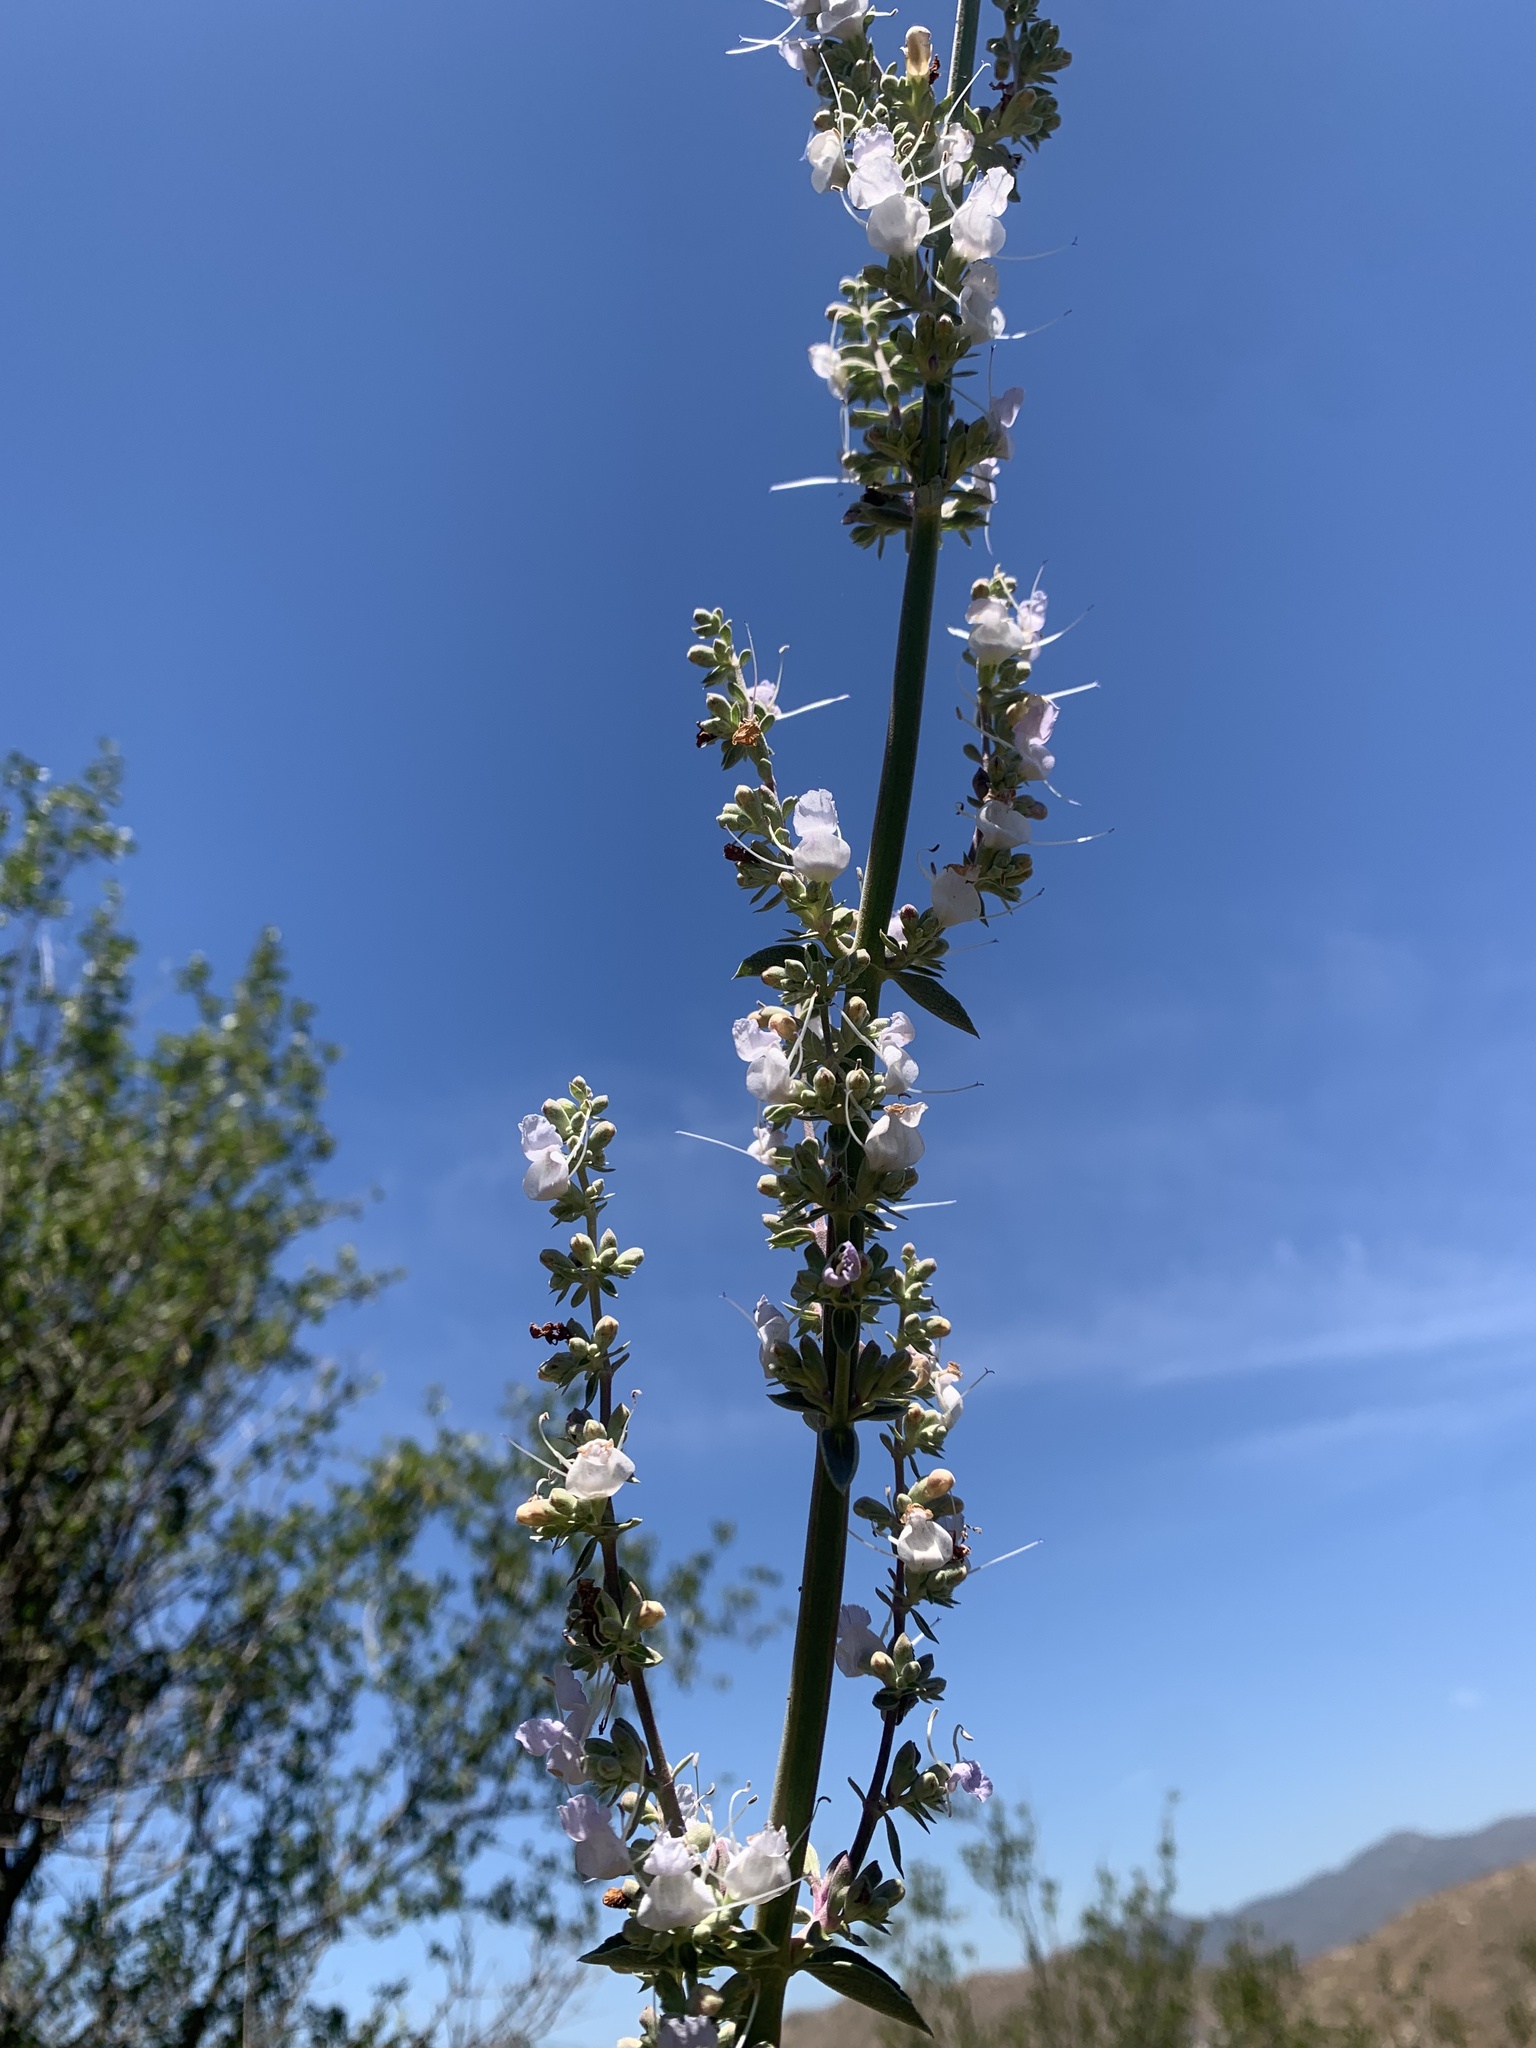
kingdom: Plantae
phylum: Tracheophyta
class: Magnoliopsida
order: Lamiales
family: Lamiaceae
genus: Salvia
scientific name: Salvia apiana
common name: White sage
